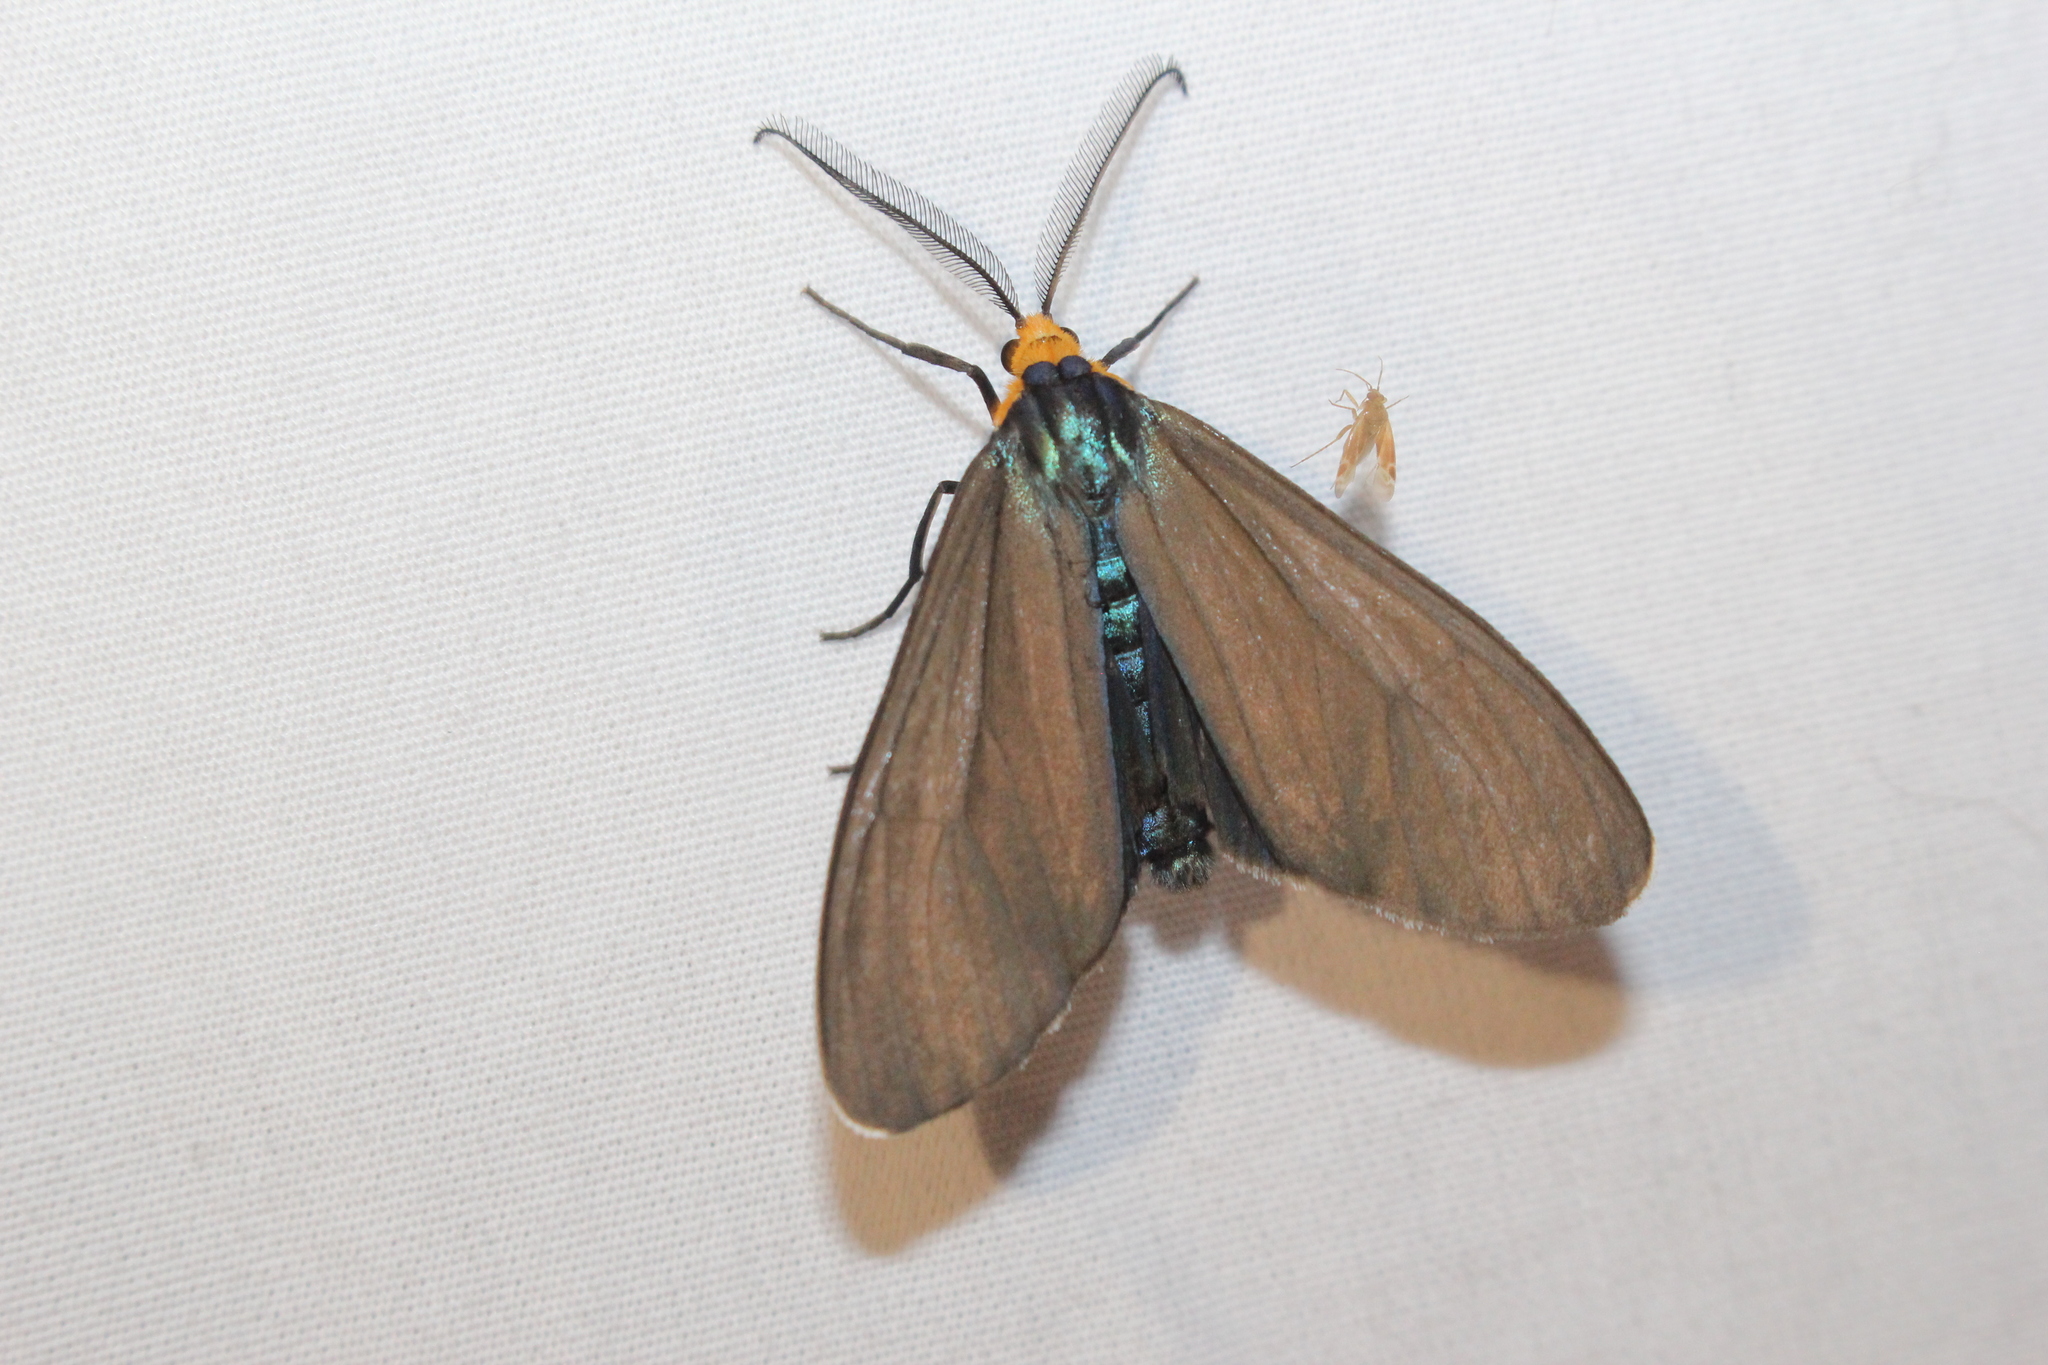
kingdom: Animalia
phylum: Arthropoda
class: Insecta
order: Lepidoptera
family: Erebidae
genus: Ctenucha
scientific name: Ctenucha virginica
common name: Virginia ctenucha moth
